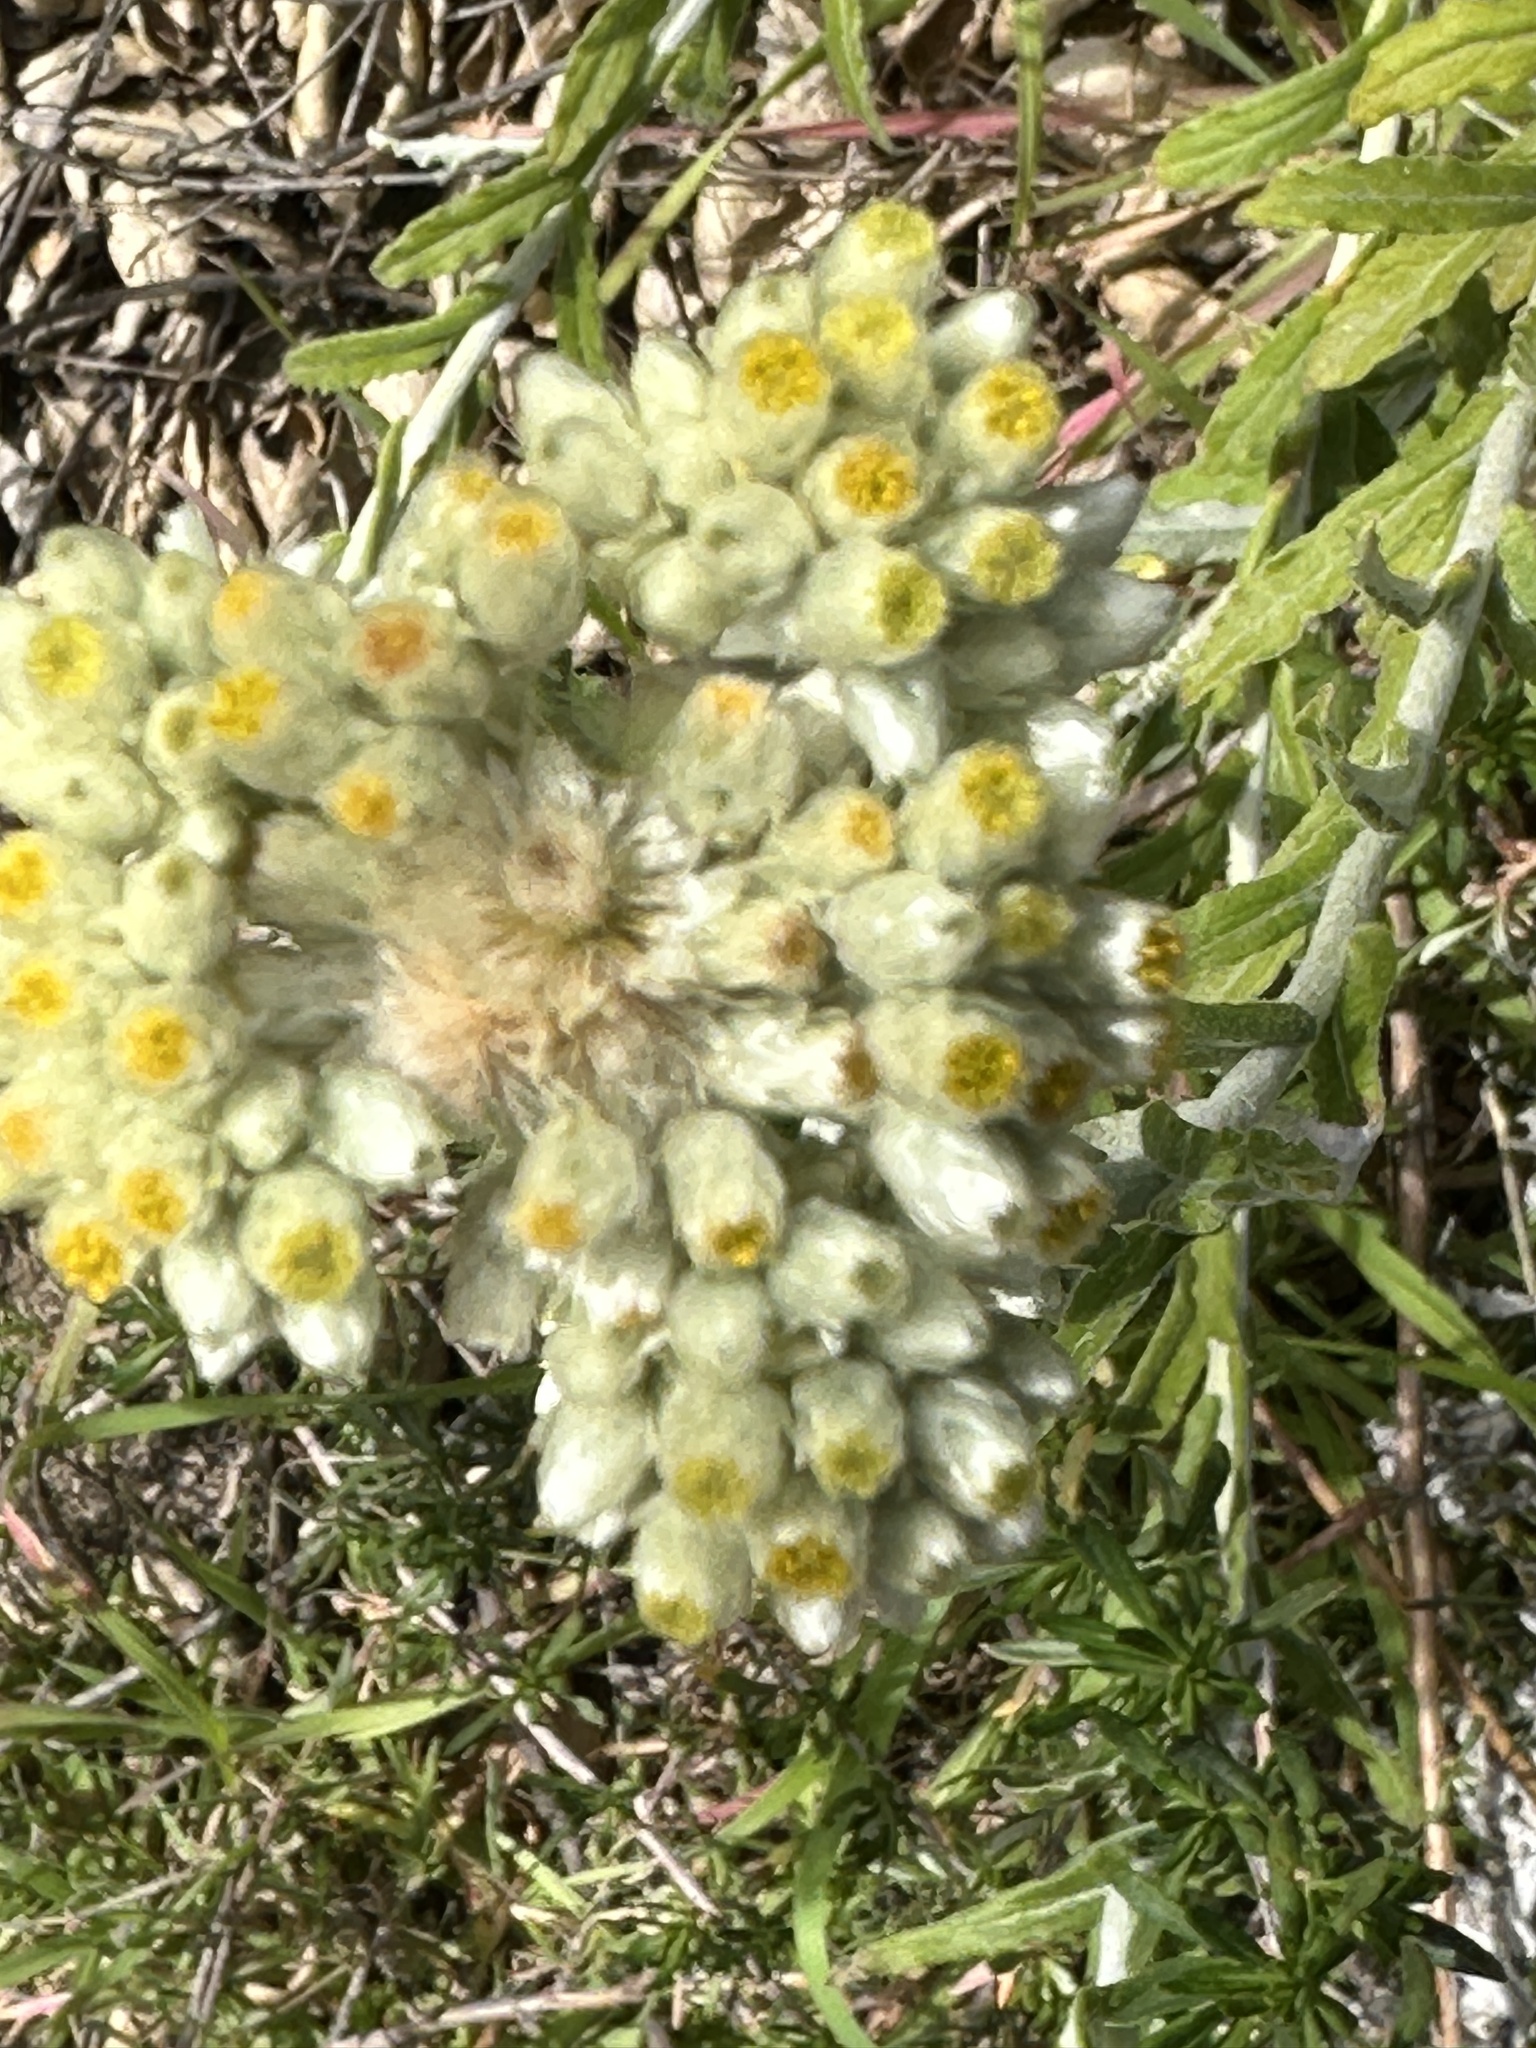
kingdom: Plantae
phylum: Tracheophyta
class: Magnoliopsida
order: Asterales
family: Asteraceae
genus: Pseudognaphalium
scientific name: Pseudognaphalium biolettii
